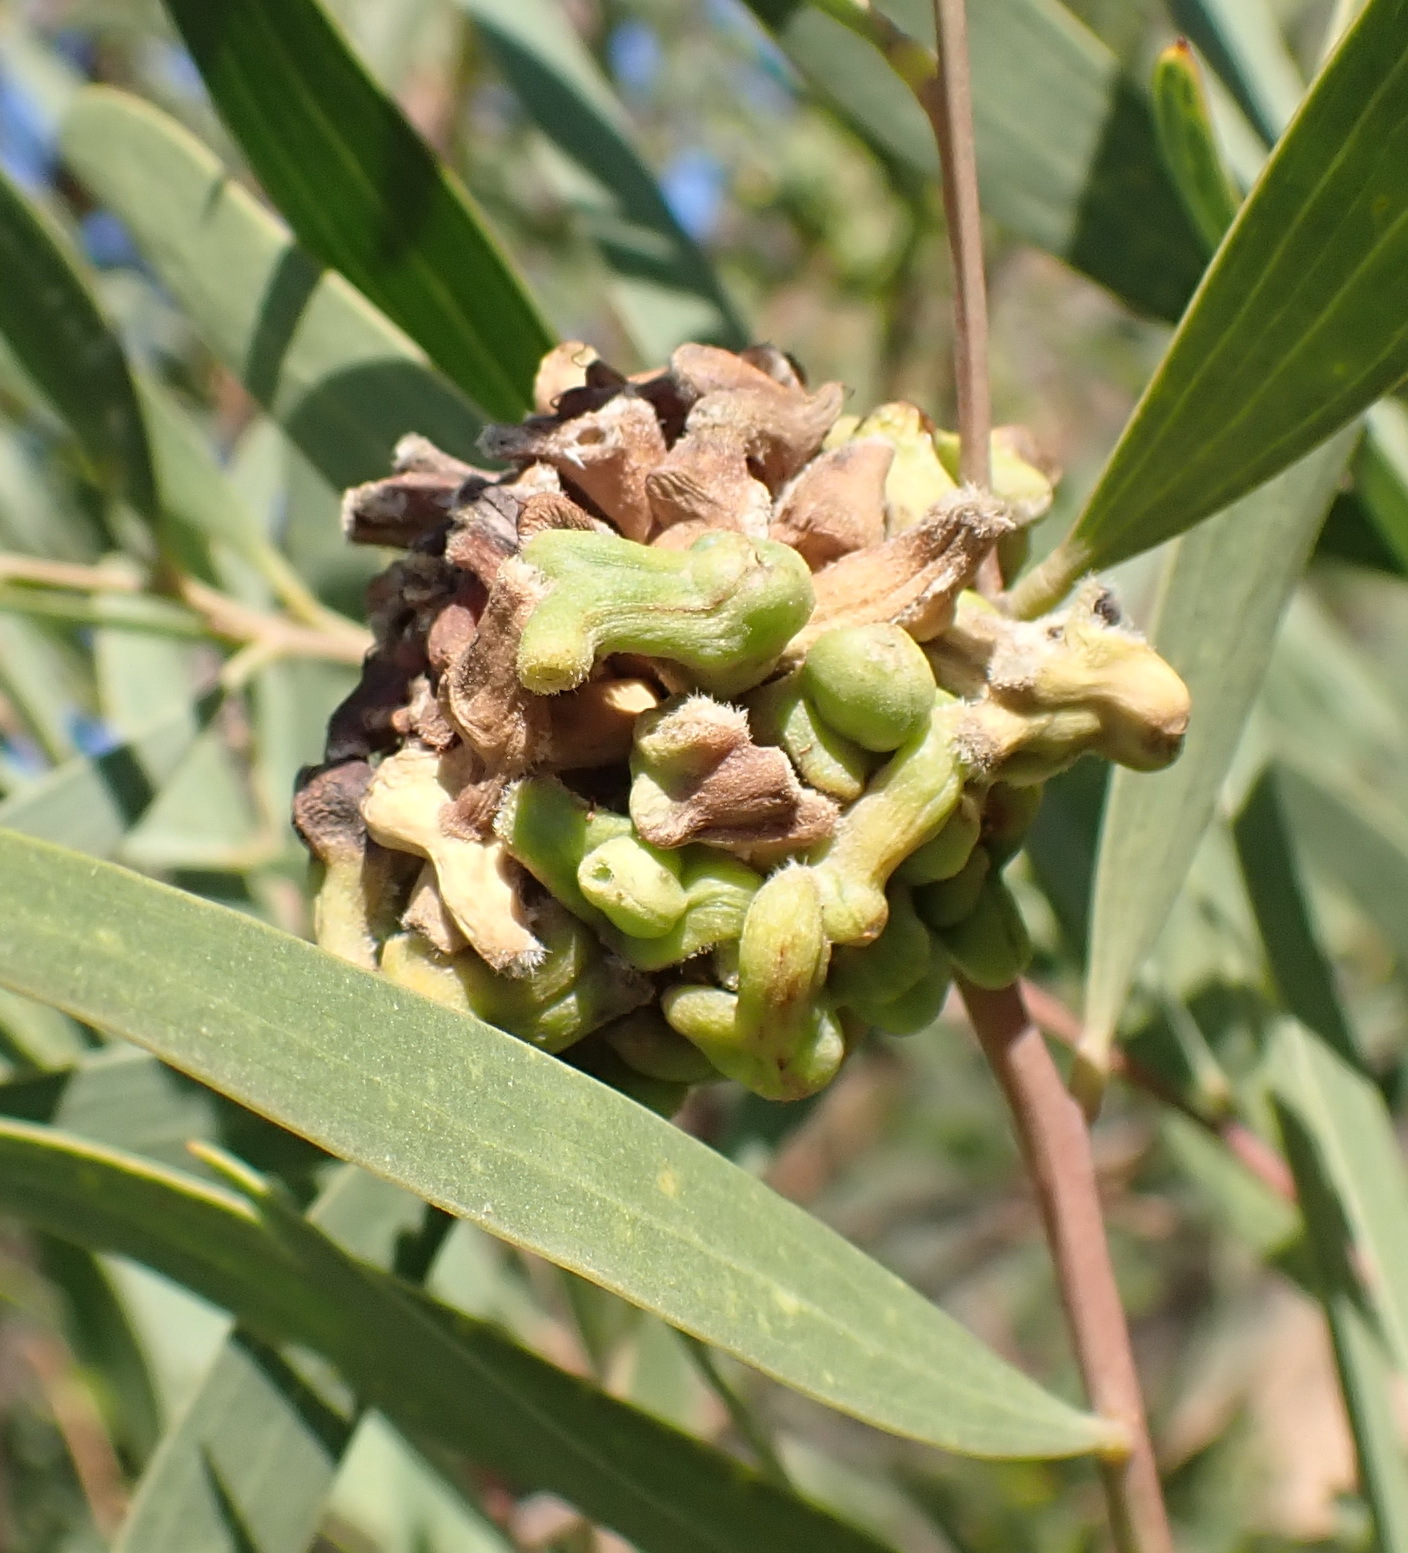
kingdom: Animalia
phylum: Arthropoda
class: Insecta
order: Diptera
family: Cecidomyiidae
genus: Dasineura
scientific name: Dasineura dielsi
